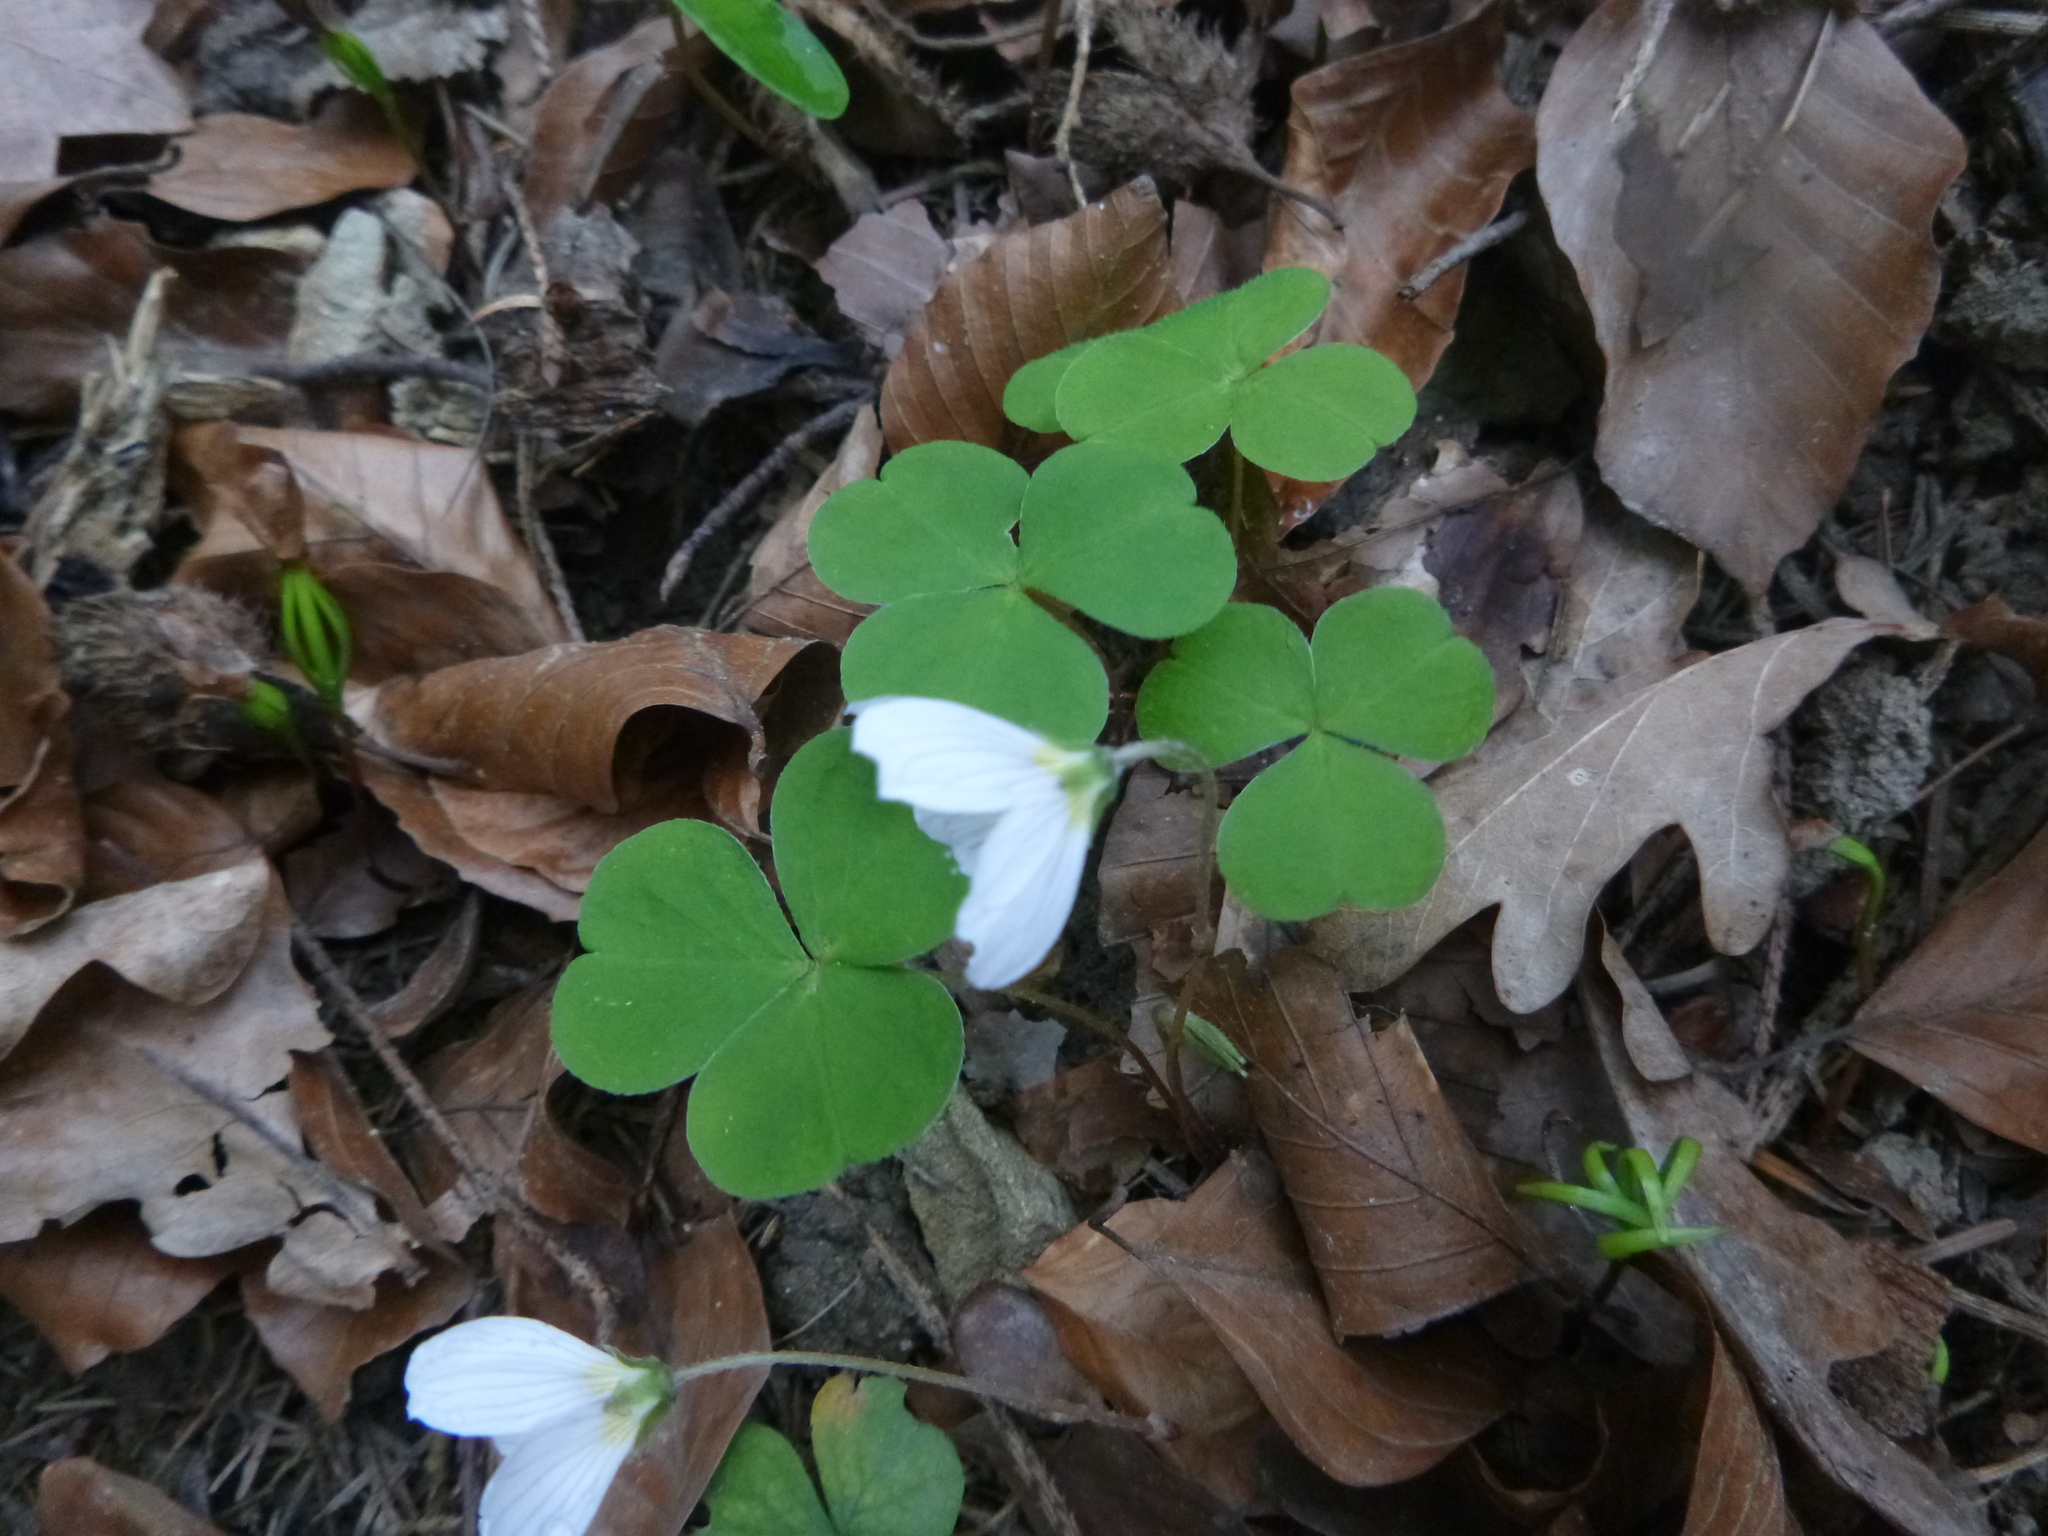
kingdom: Plantae
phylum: Tracheophyta
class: Magnoliopsida
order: Oxalidales
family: Oxalidaceae
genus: Oxalis
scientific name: Oxalis acetosella
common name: Wood-sorrel
